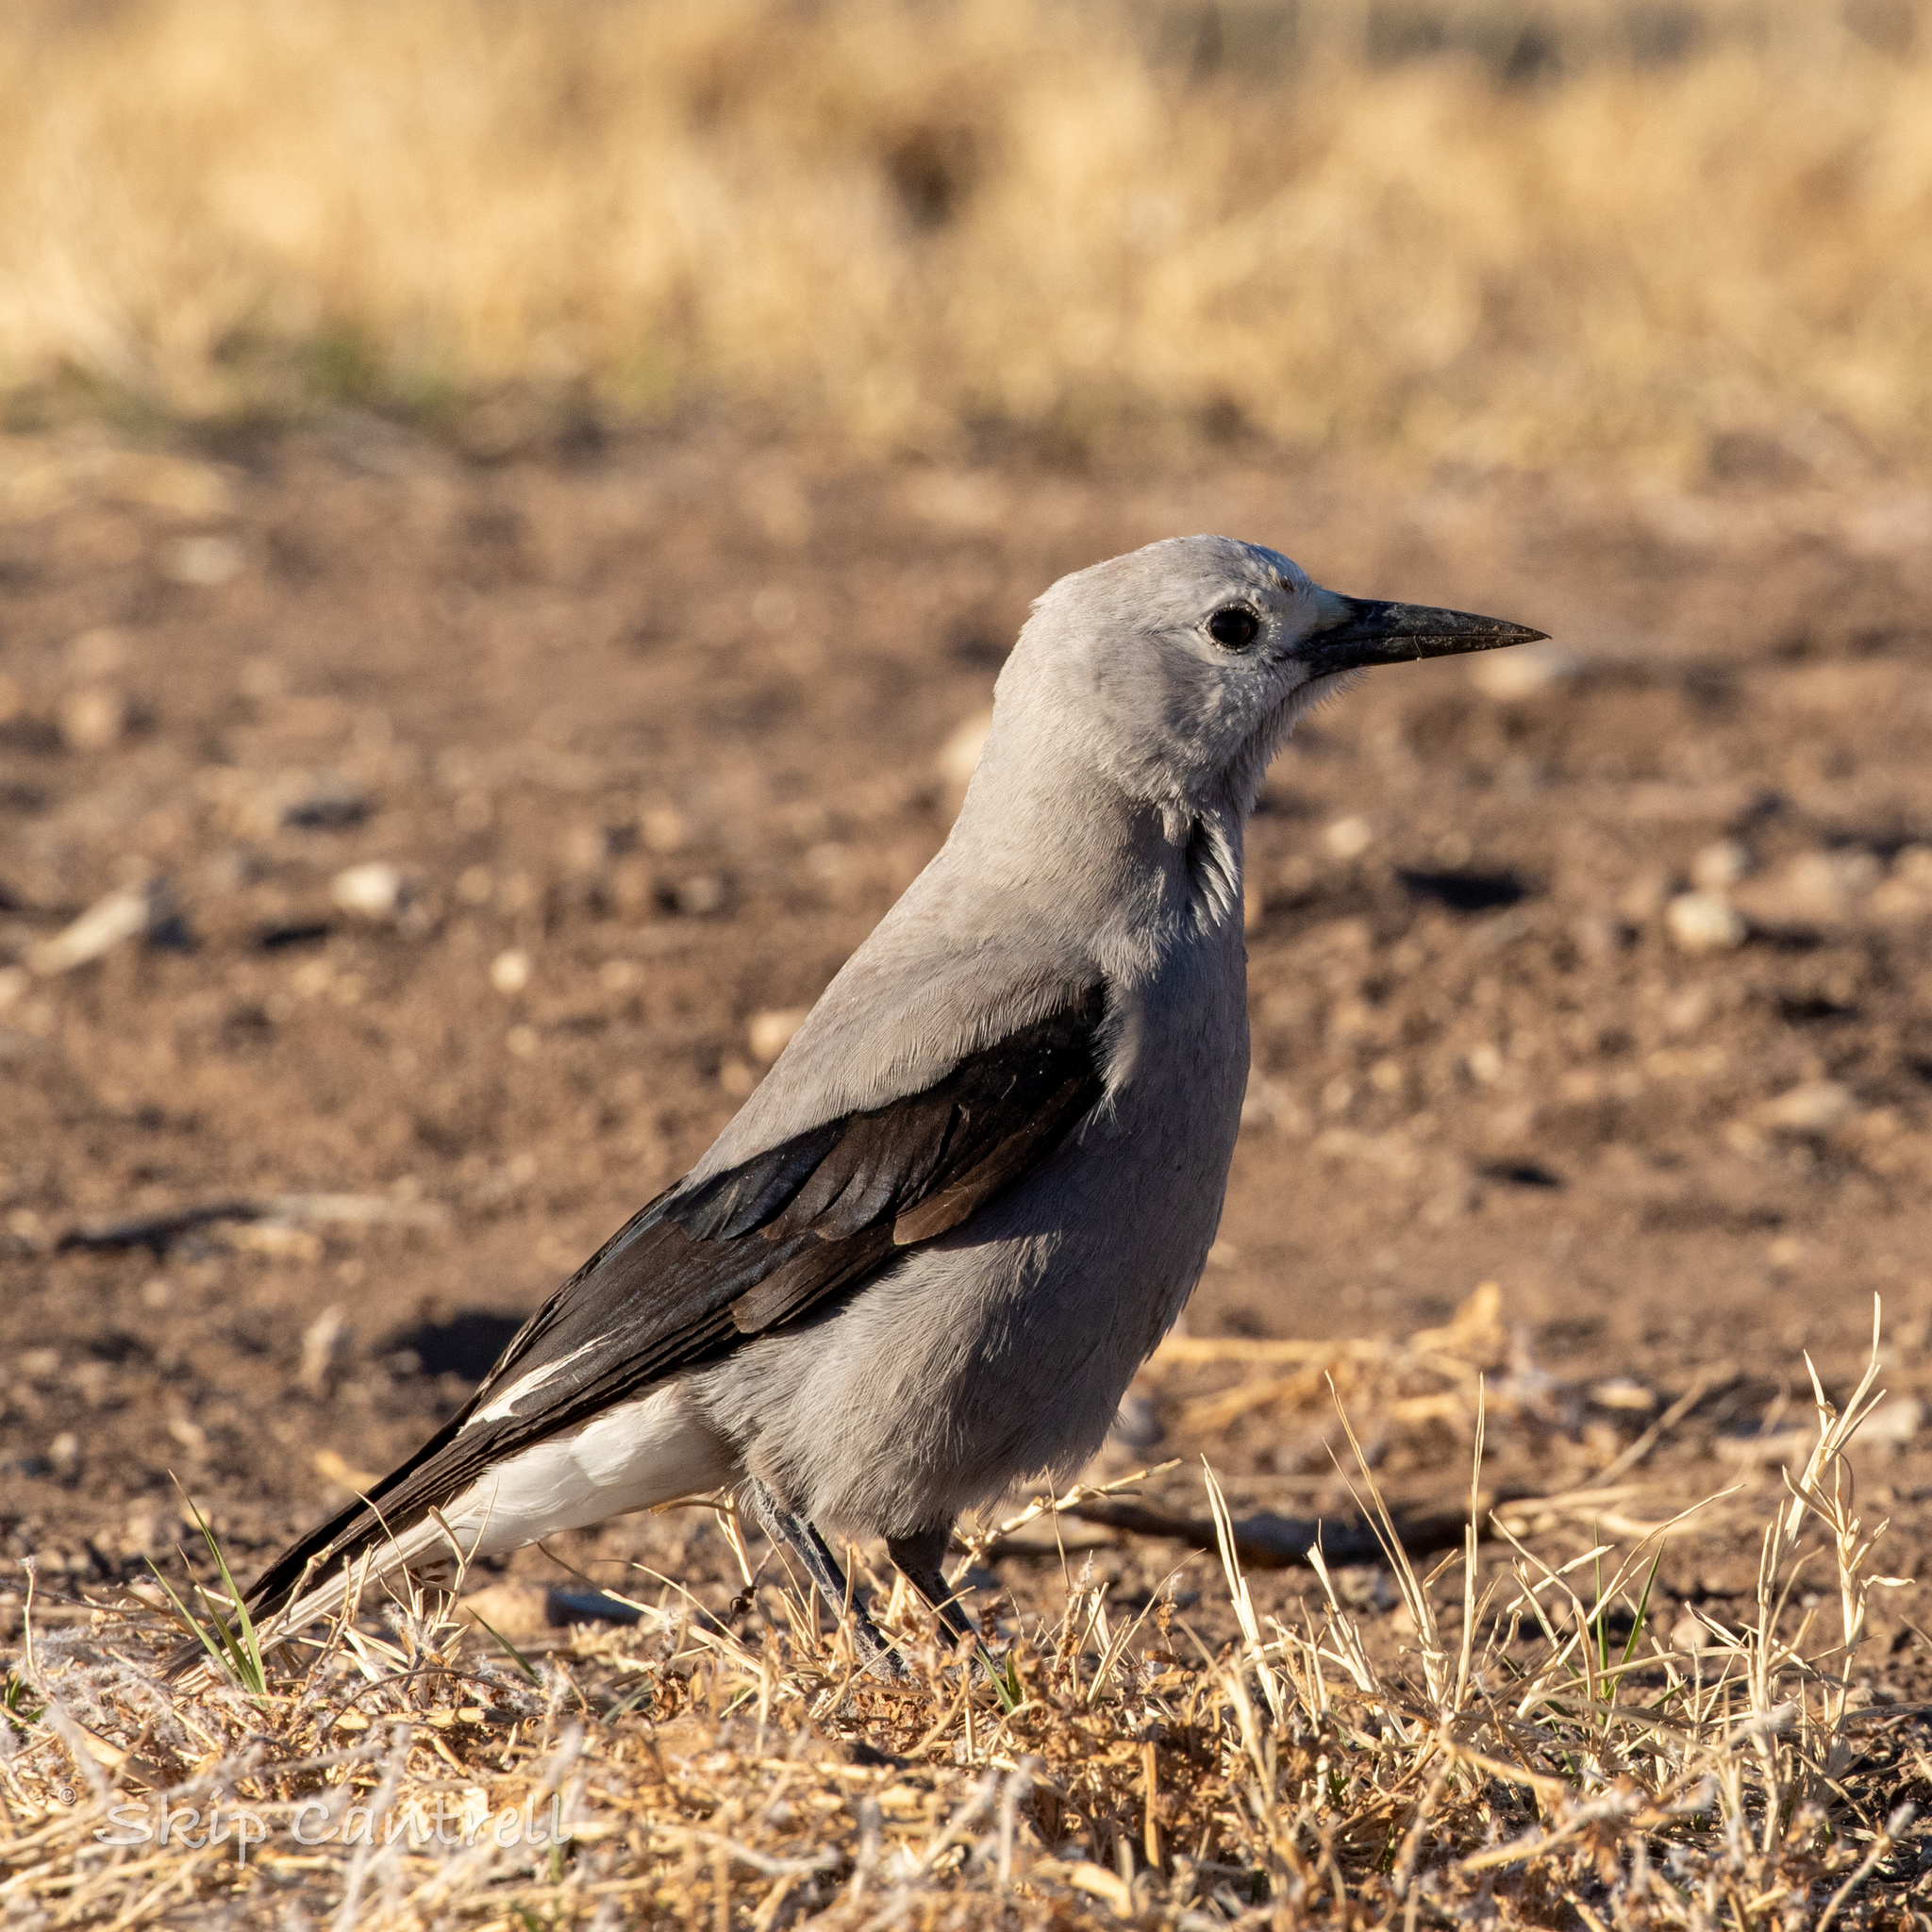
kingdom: Animalia
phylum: Chordata
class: Aves
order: Passeriformes
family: Corvidae
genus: Nucifraga
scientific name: Nucifraga columbiana
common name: Clark's nutcracker
